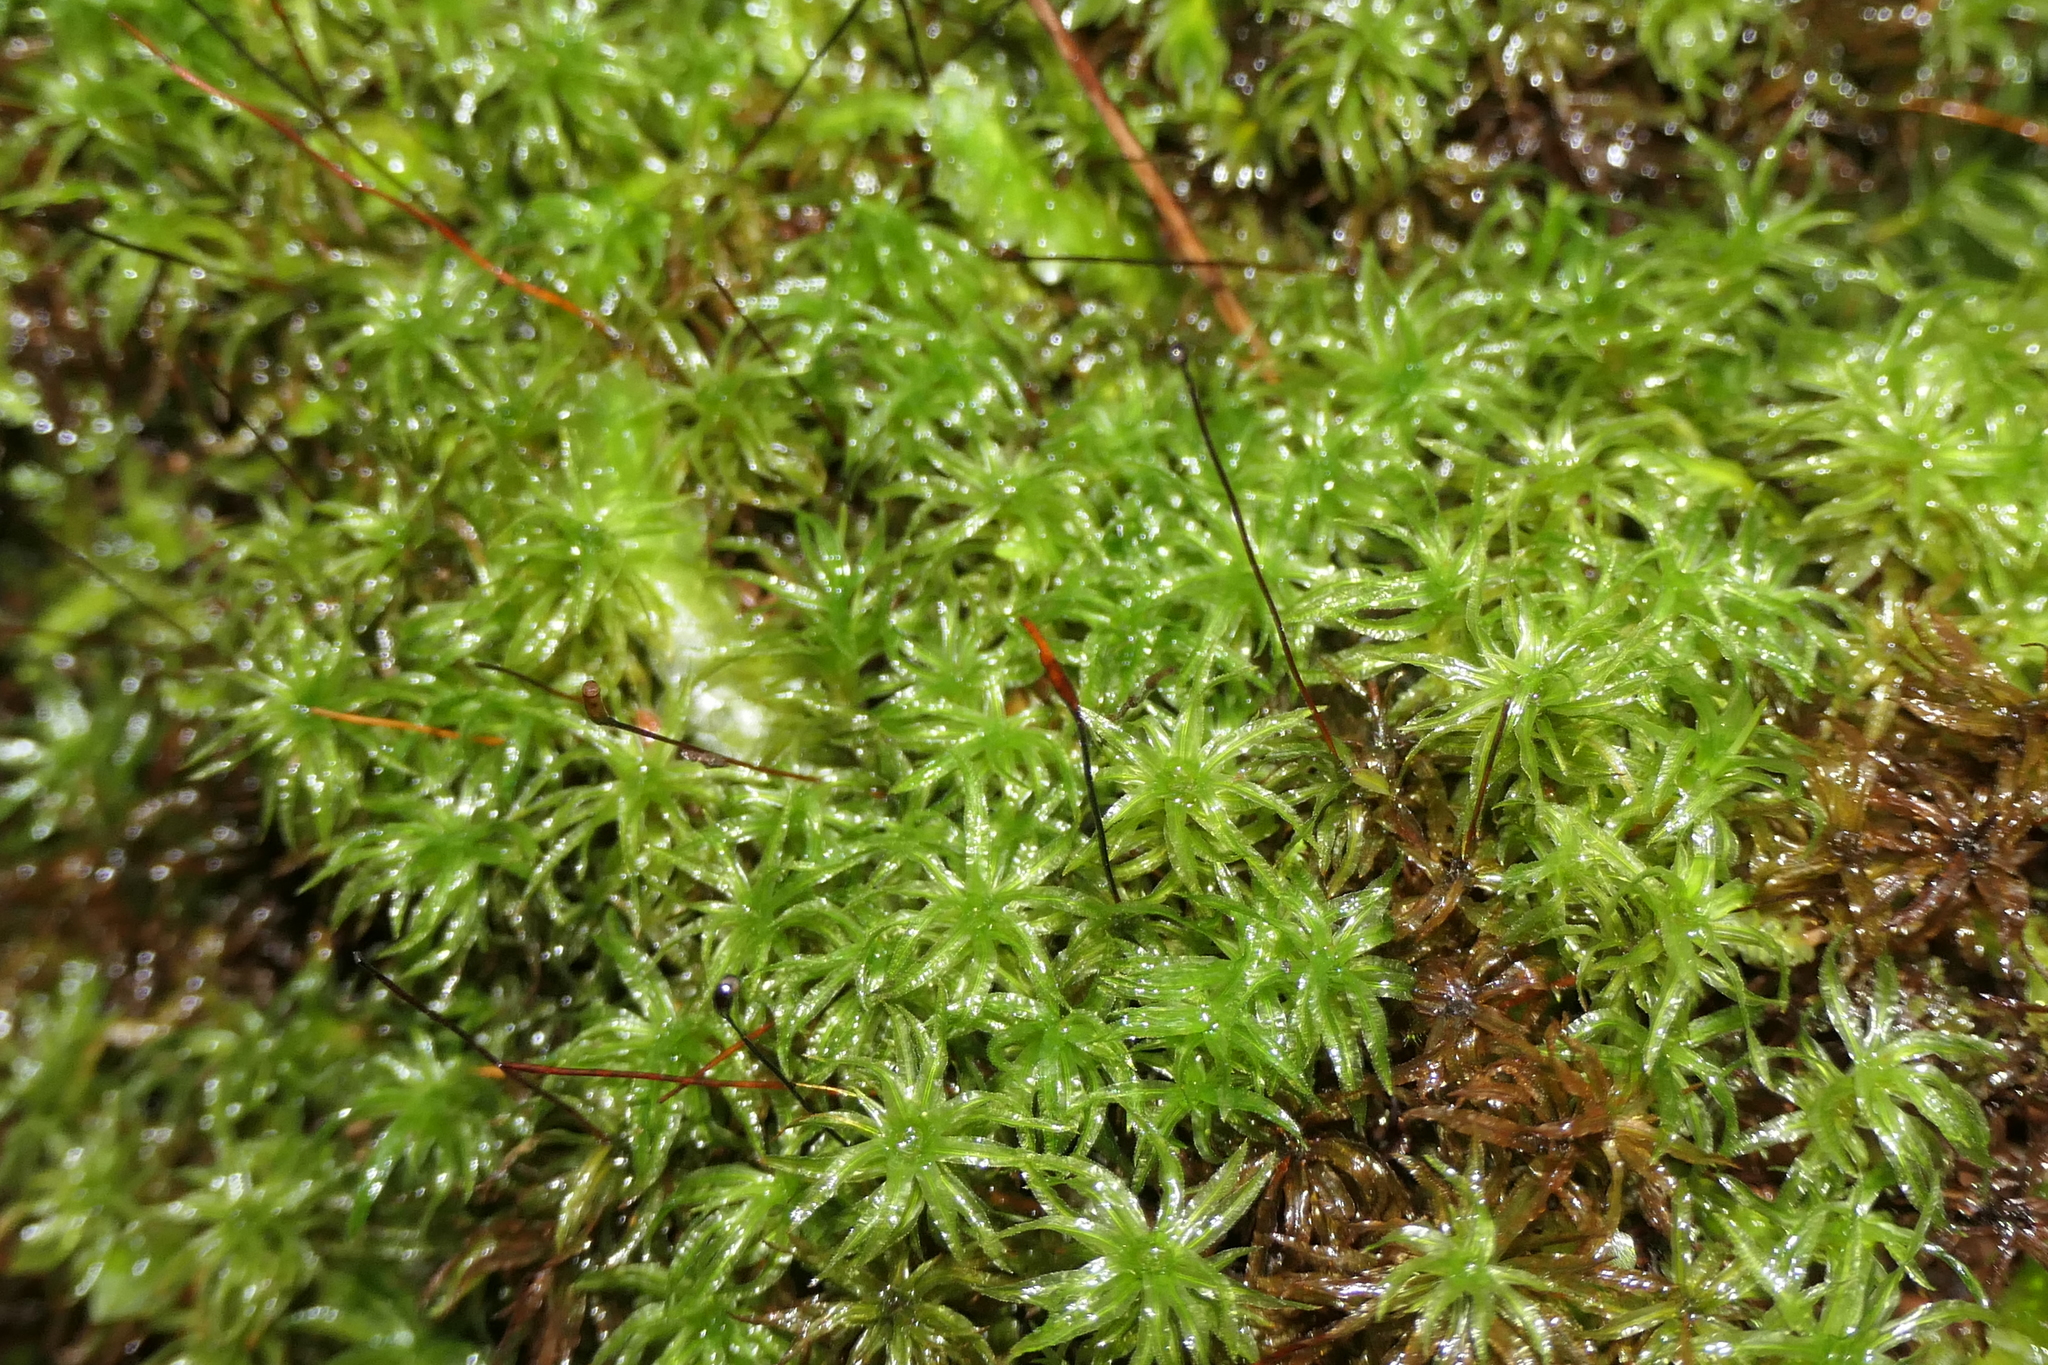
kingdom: Plantae
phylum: Bryophyta
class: Polytrichopsida
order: Polytrichales
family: Polytrichaceae
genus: Atrichum
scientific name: Atrichum undulatum
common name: Common smoothcap
